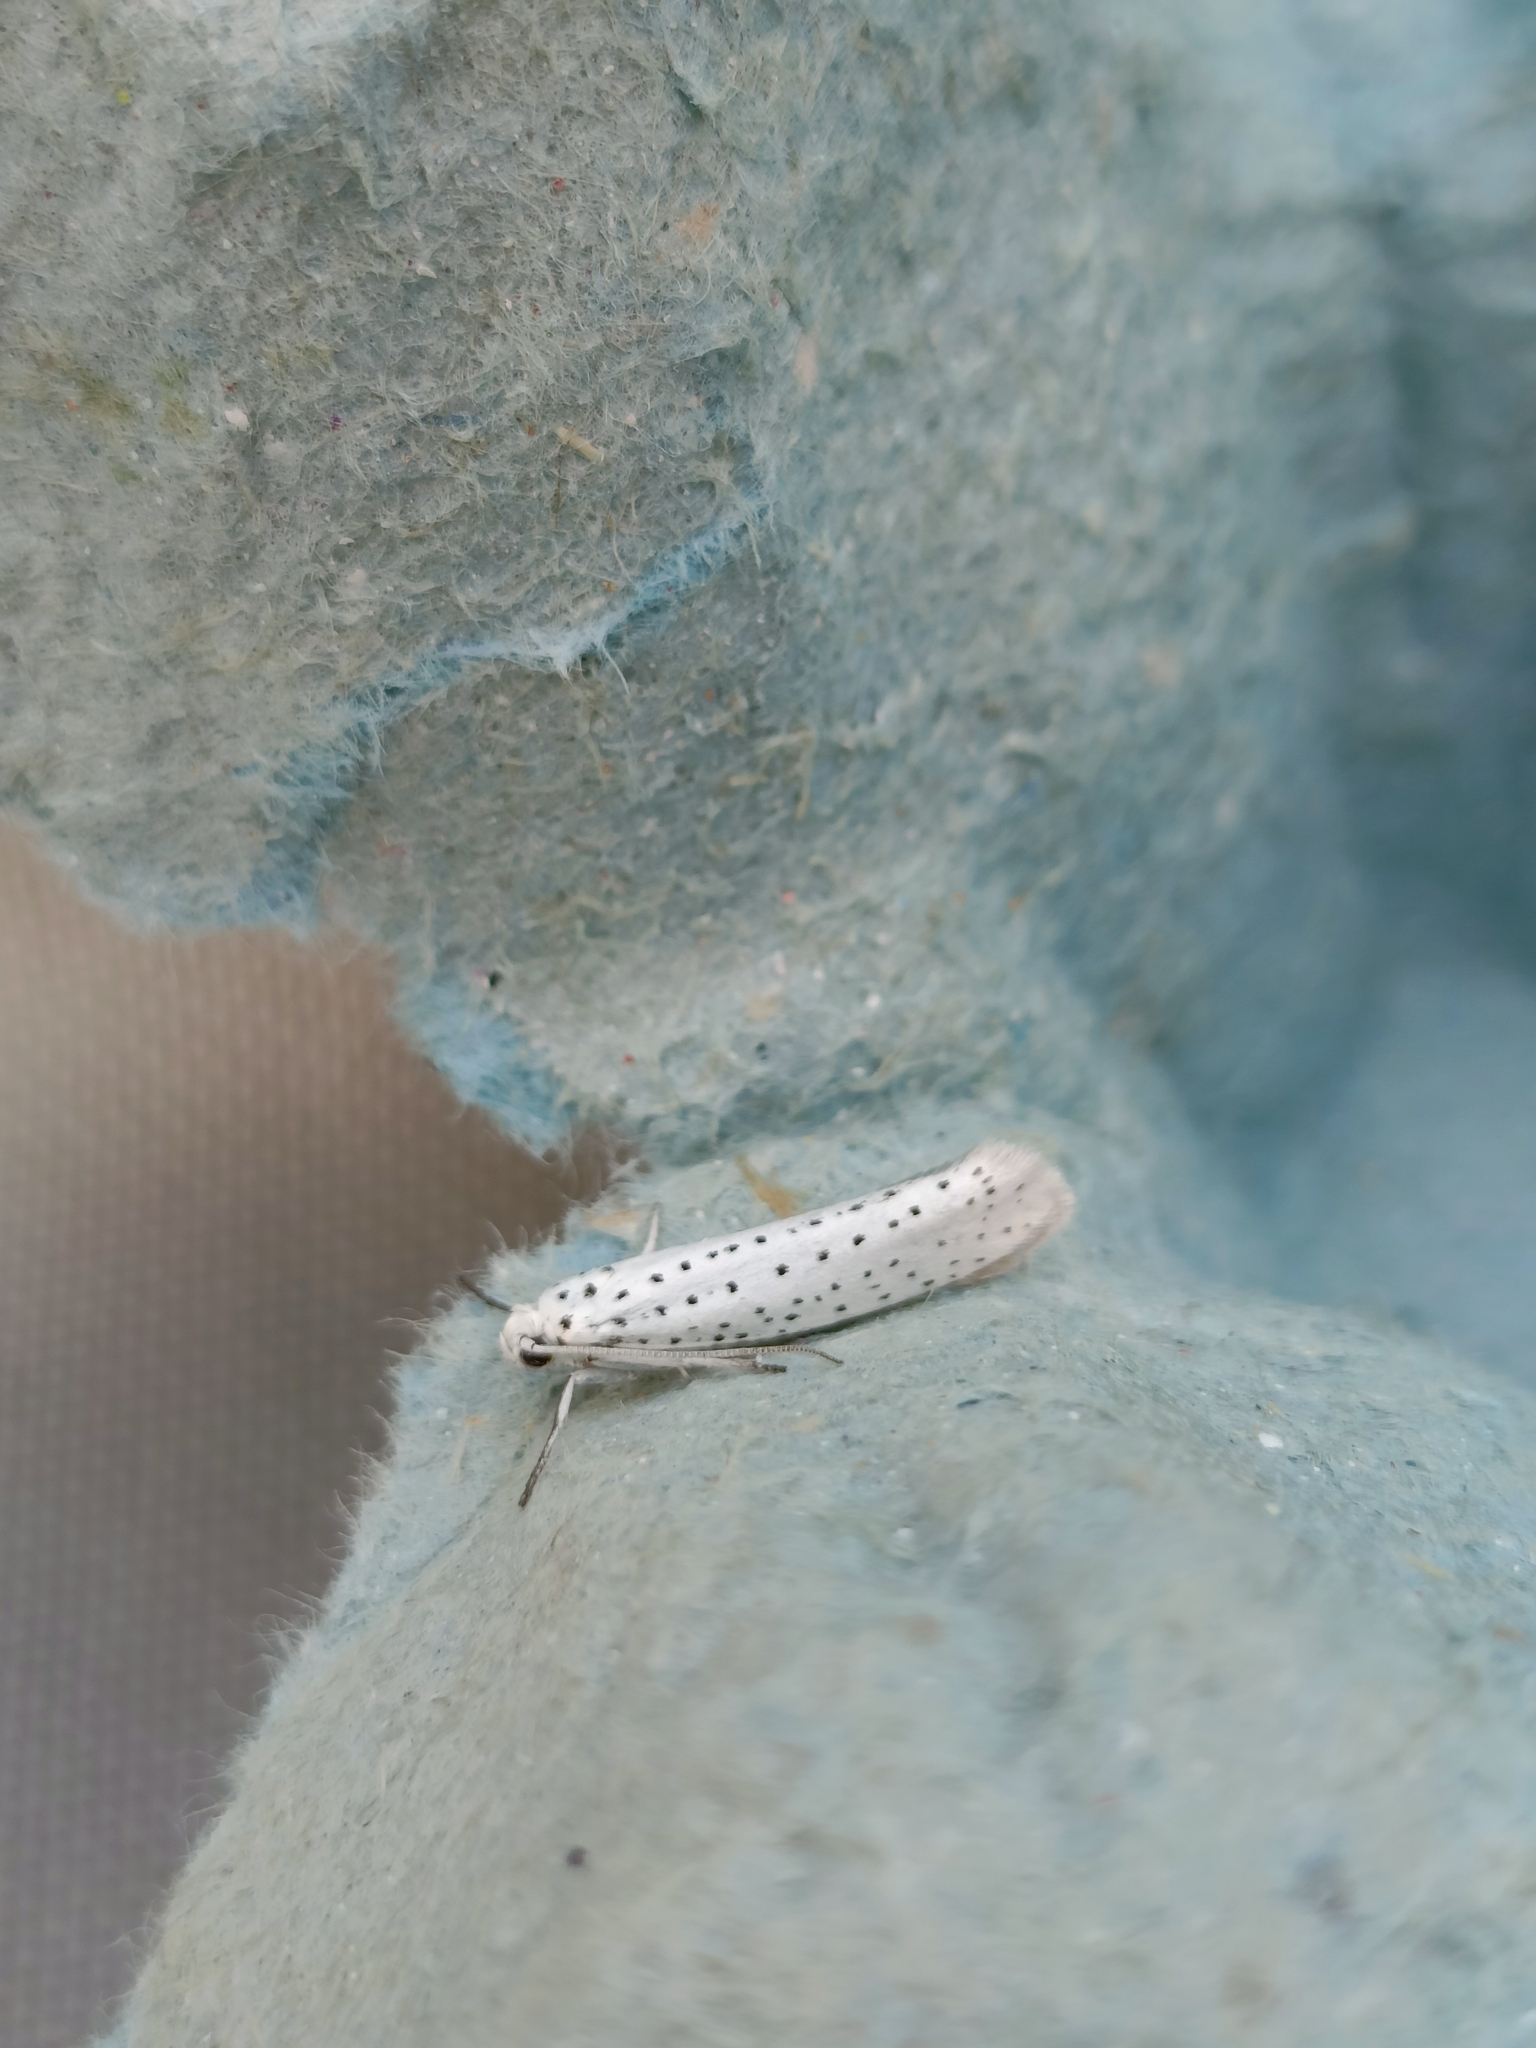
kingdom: Animalia
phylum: Arthropoda
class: Insecta
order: Lepidoptera
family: Yponomeutidae
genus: Yponomeuta
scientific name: Yponomeuta evonymella
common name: Bird-cherry ermine
